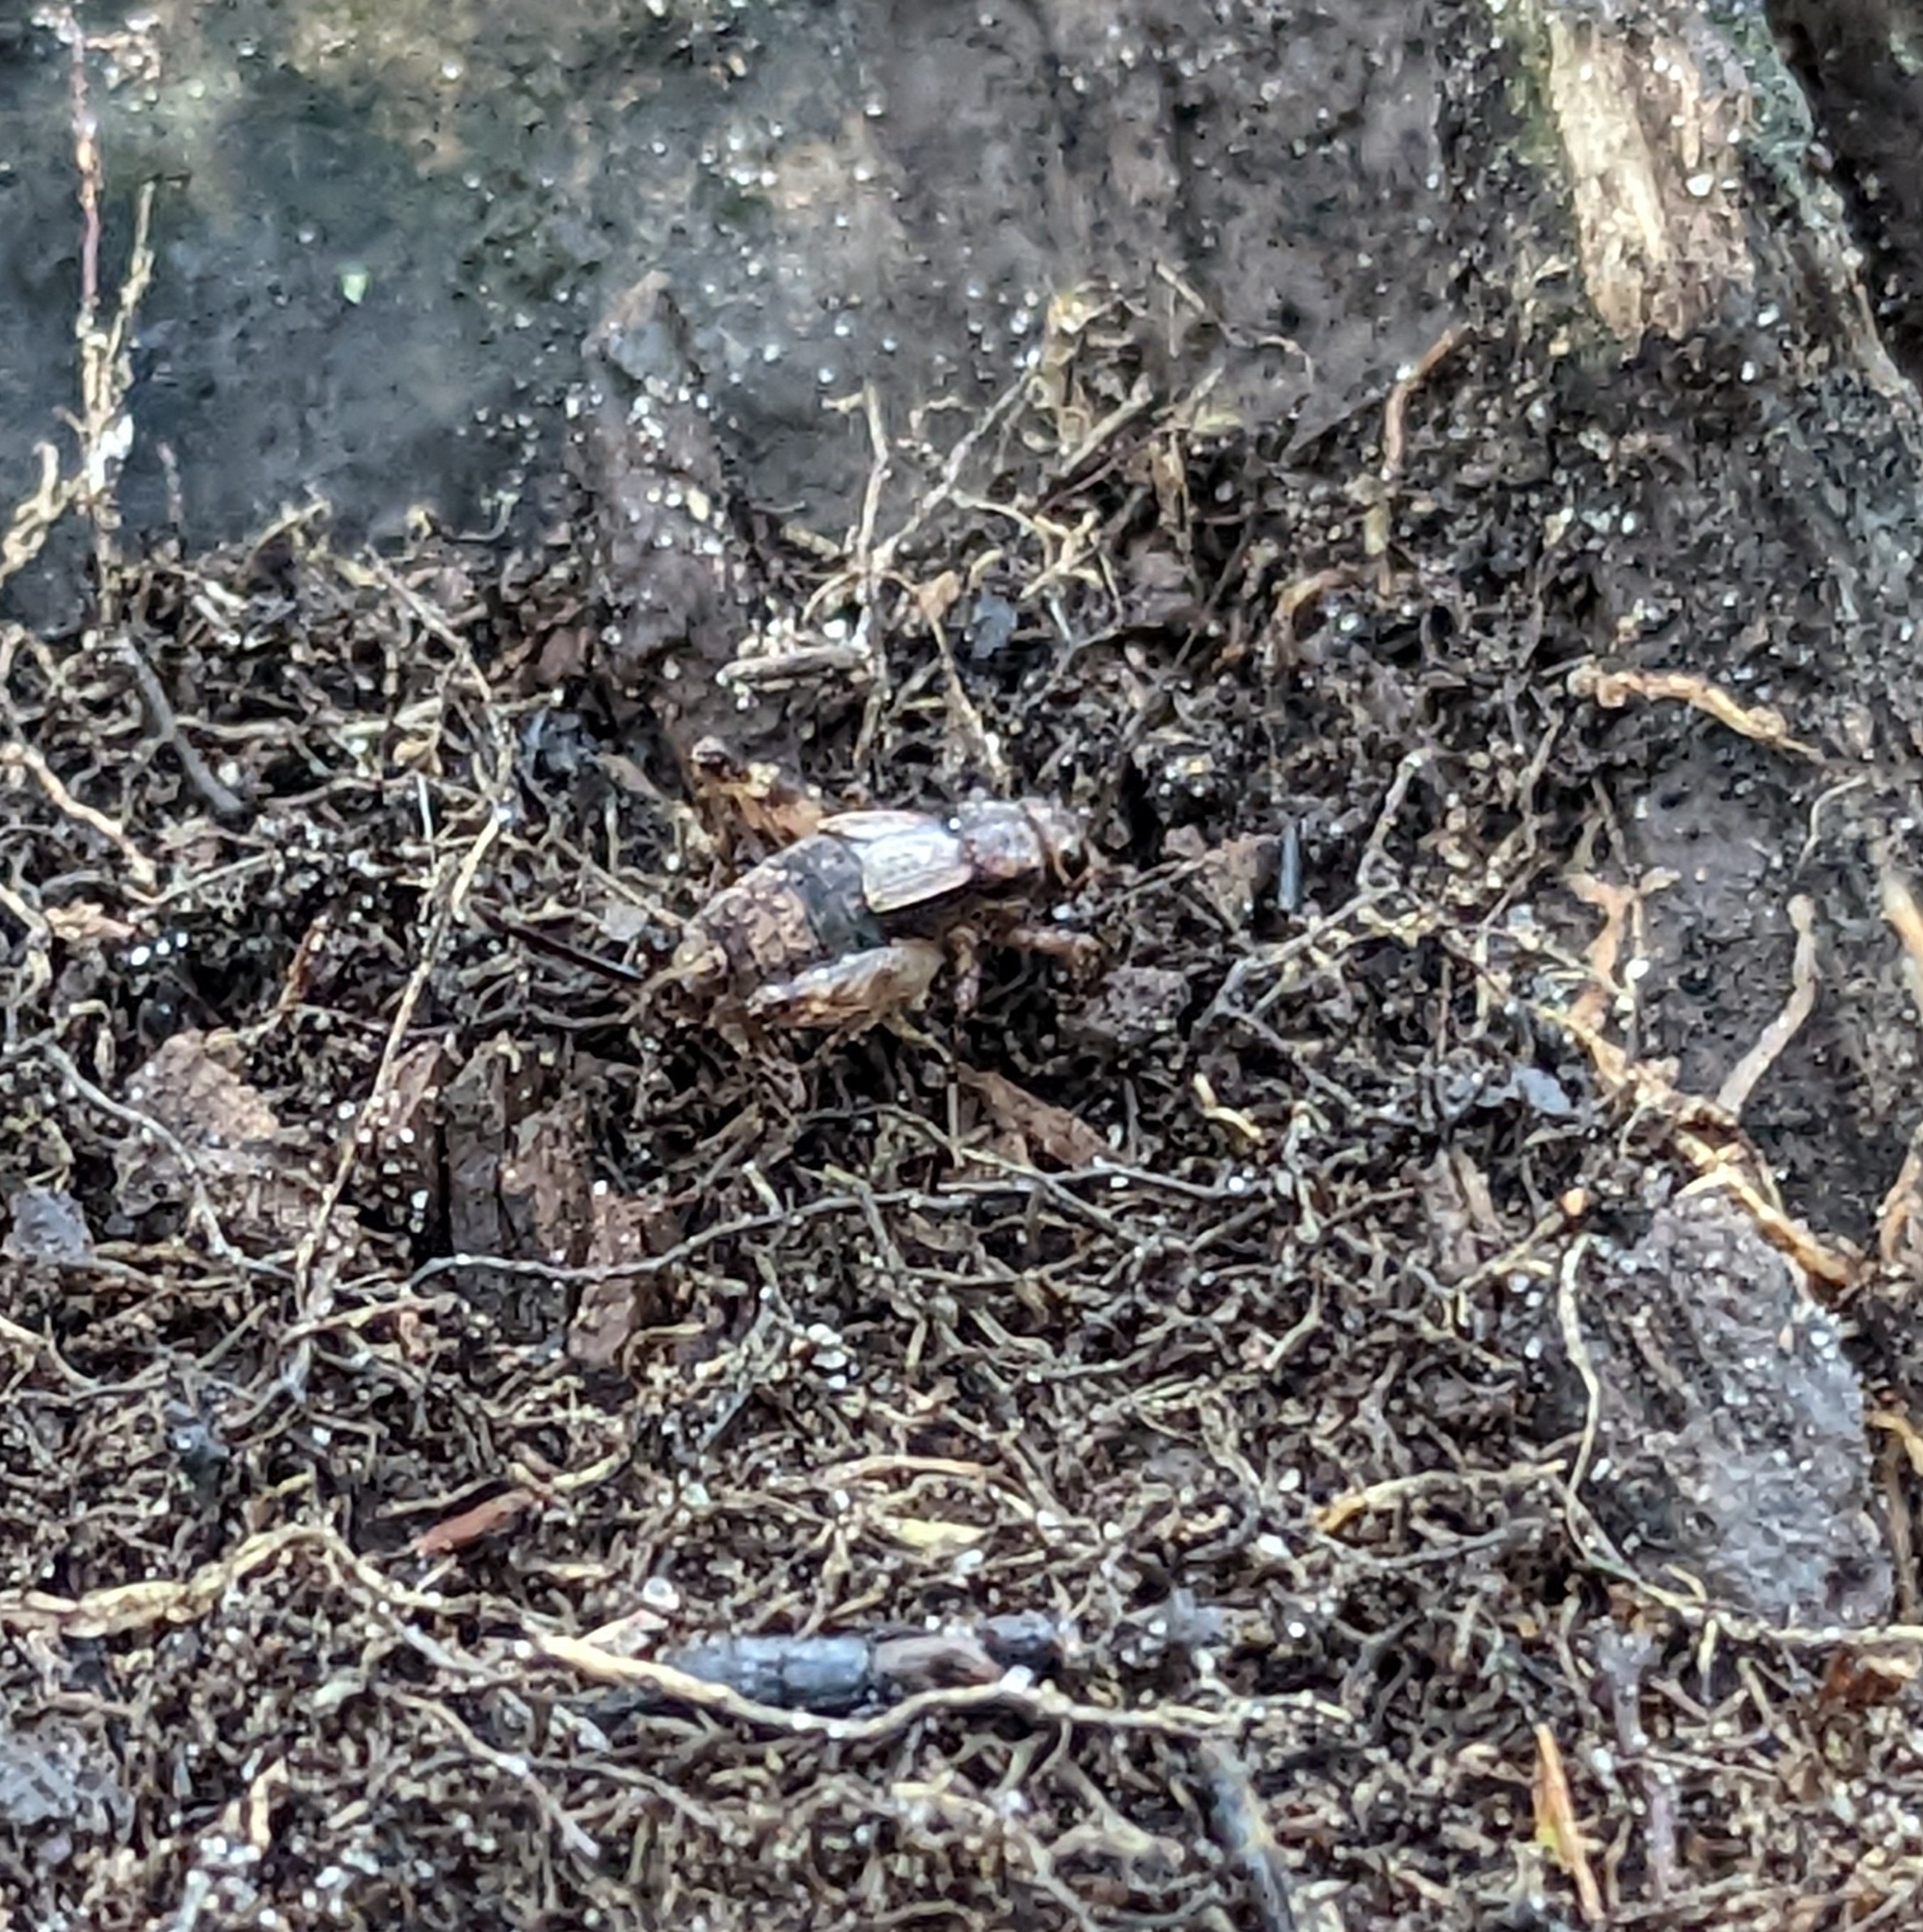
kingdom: Animalia
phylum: Arthropoda
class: Insecta
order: Orthoptera
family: Trigonidiidae
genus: Allonemobius
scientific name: Allonemobius maculatus
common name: Larger spotted ground cricket
